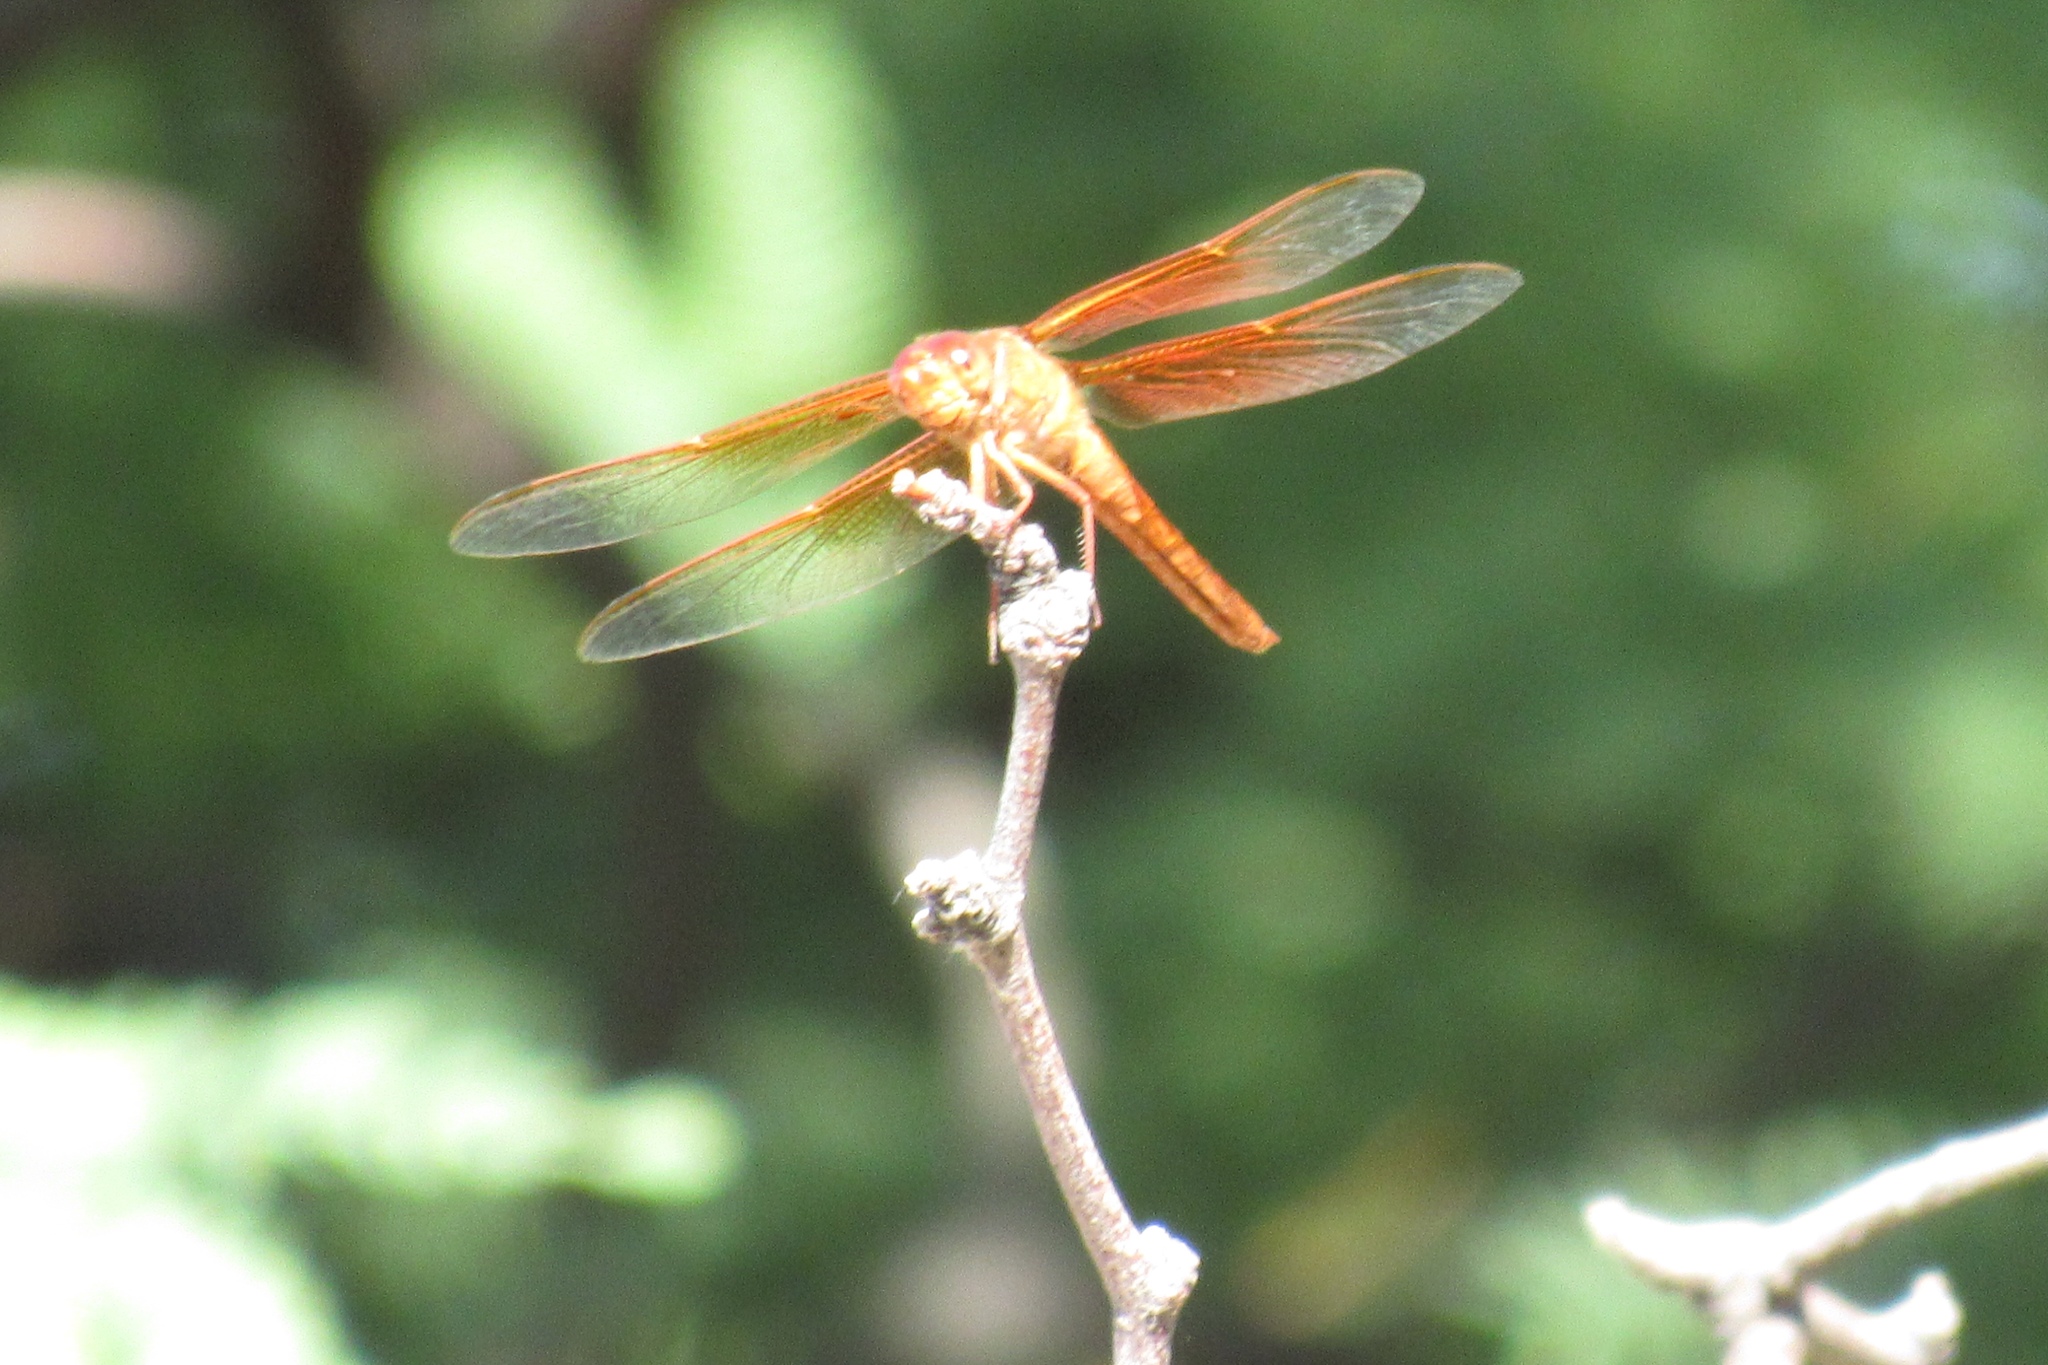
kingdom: Animalia
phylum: Arthropoda
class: Insecta
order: Odonata
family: Libellulidae
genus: Libellula
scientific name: Libellula saturata
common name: Flame skimmer
